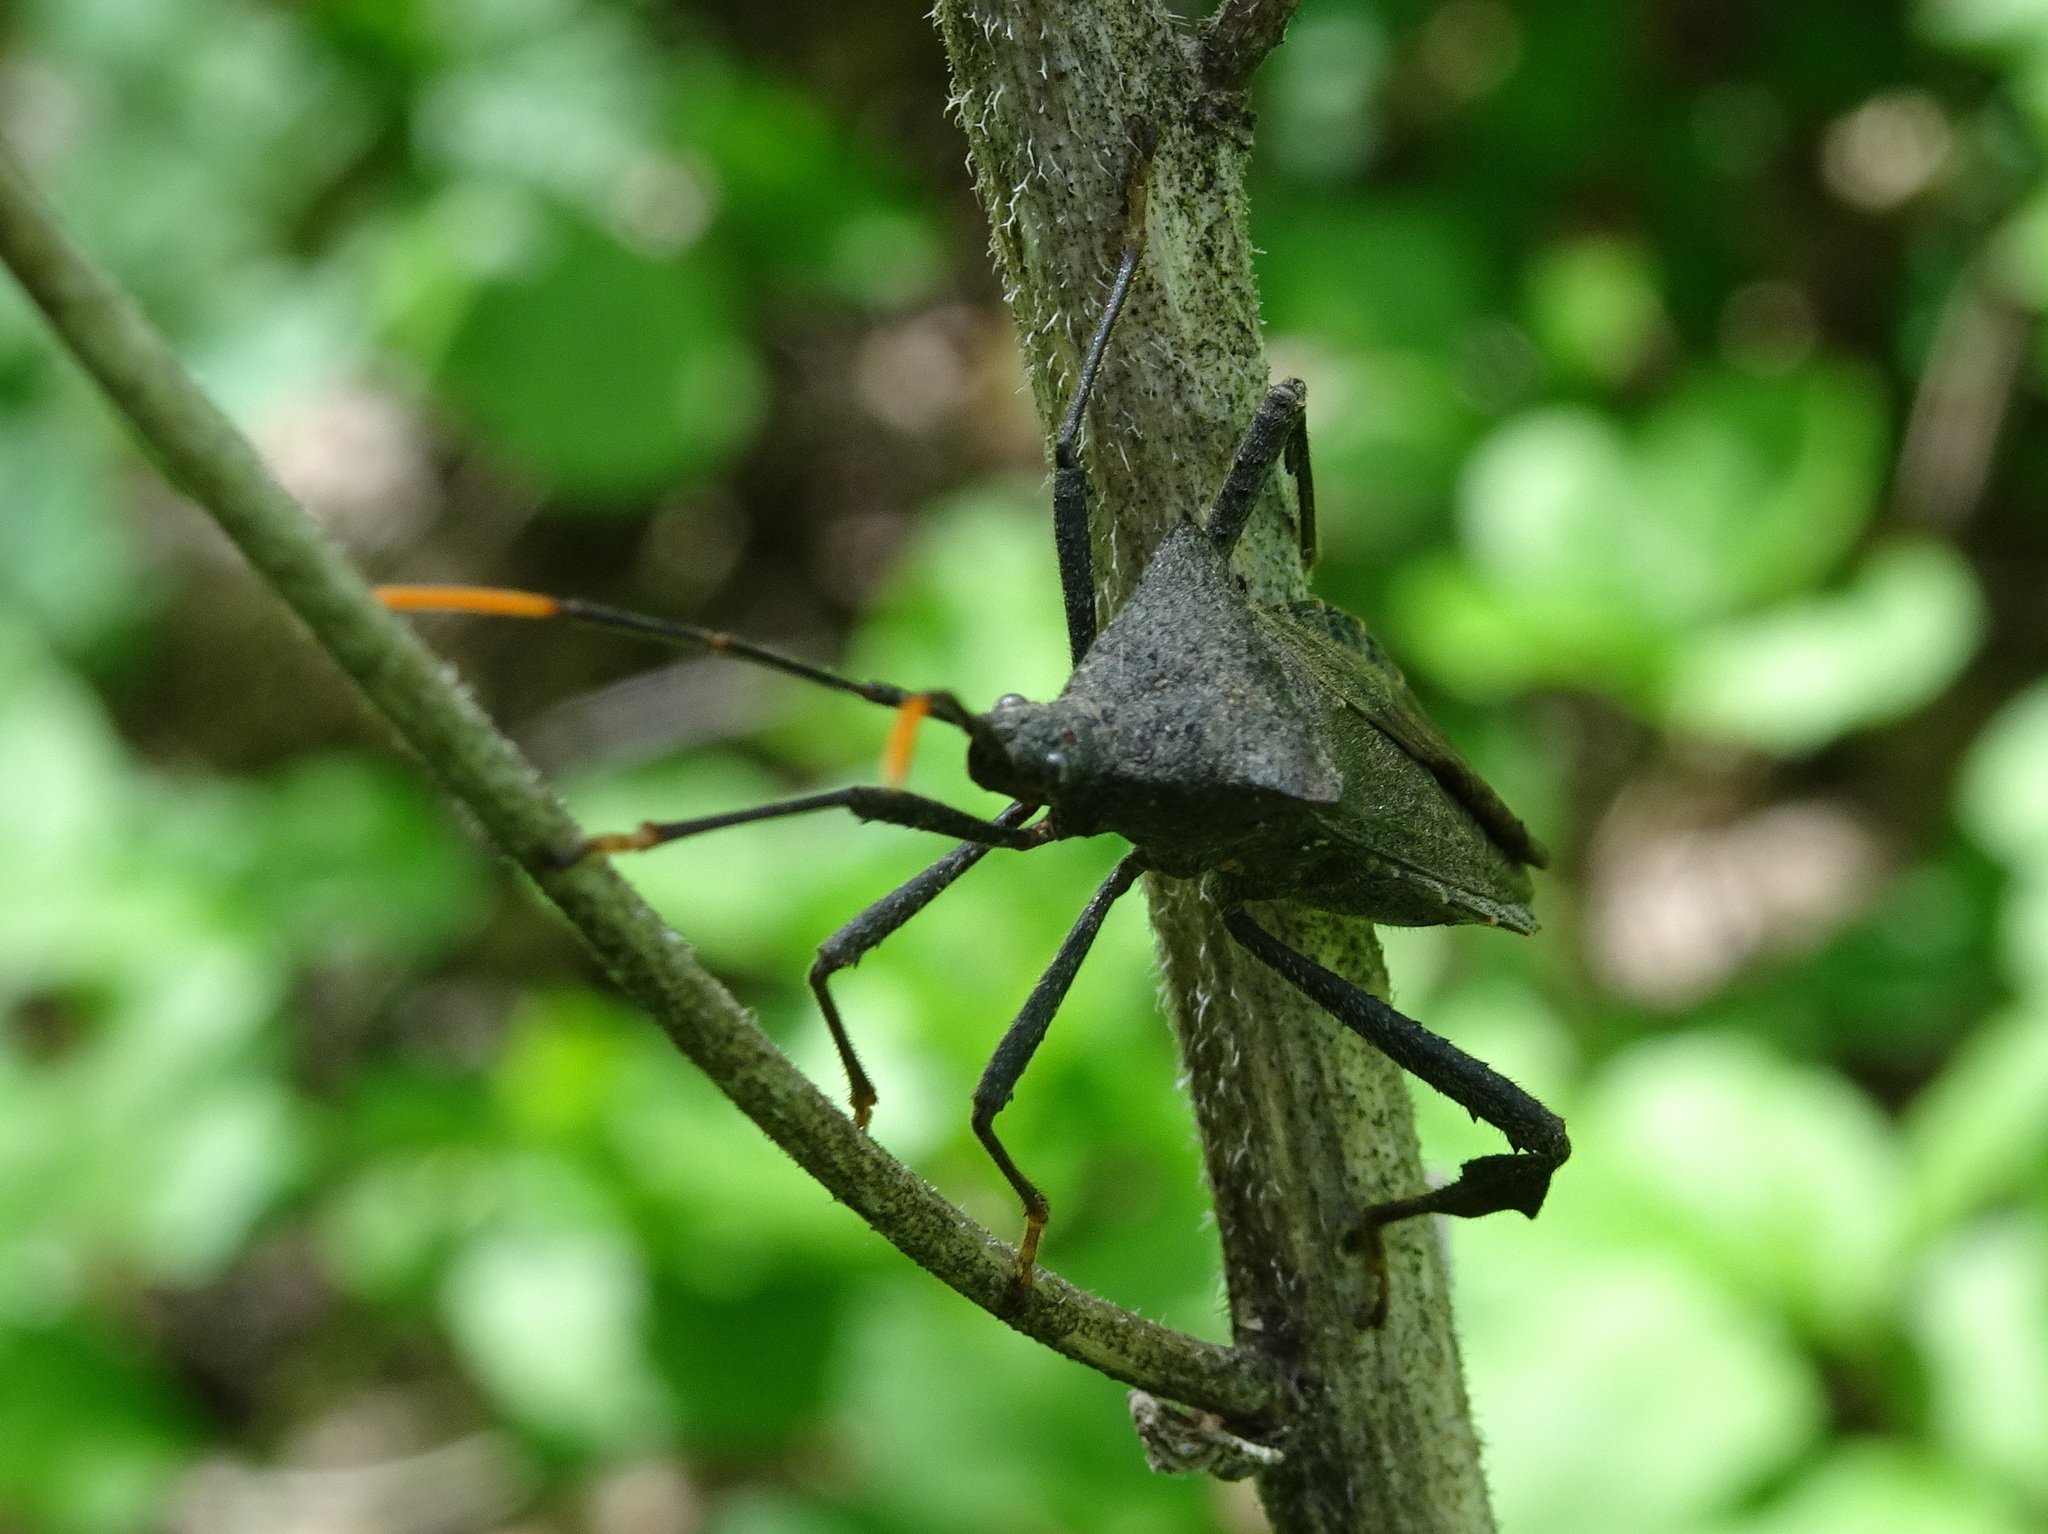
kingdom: Animalia
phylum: Arthropoda
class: Insecta
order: Hemiptera
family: Coreidae
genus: Acanthocephala
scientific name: Acanthocephala terminalis
